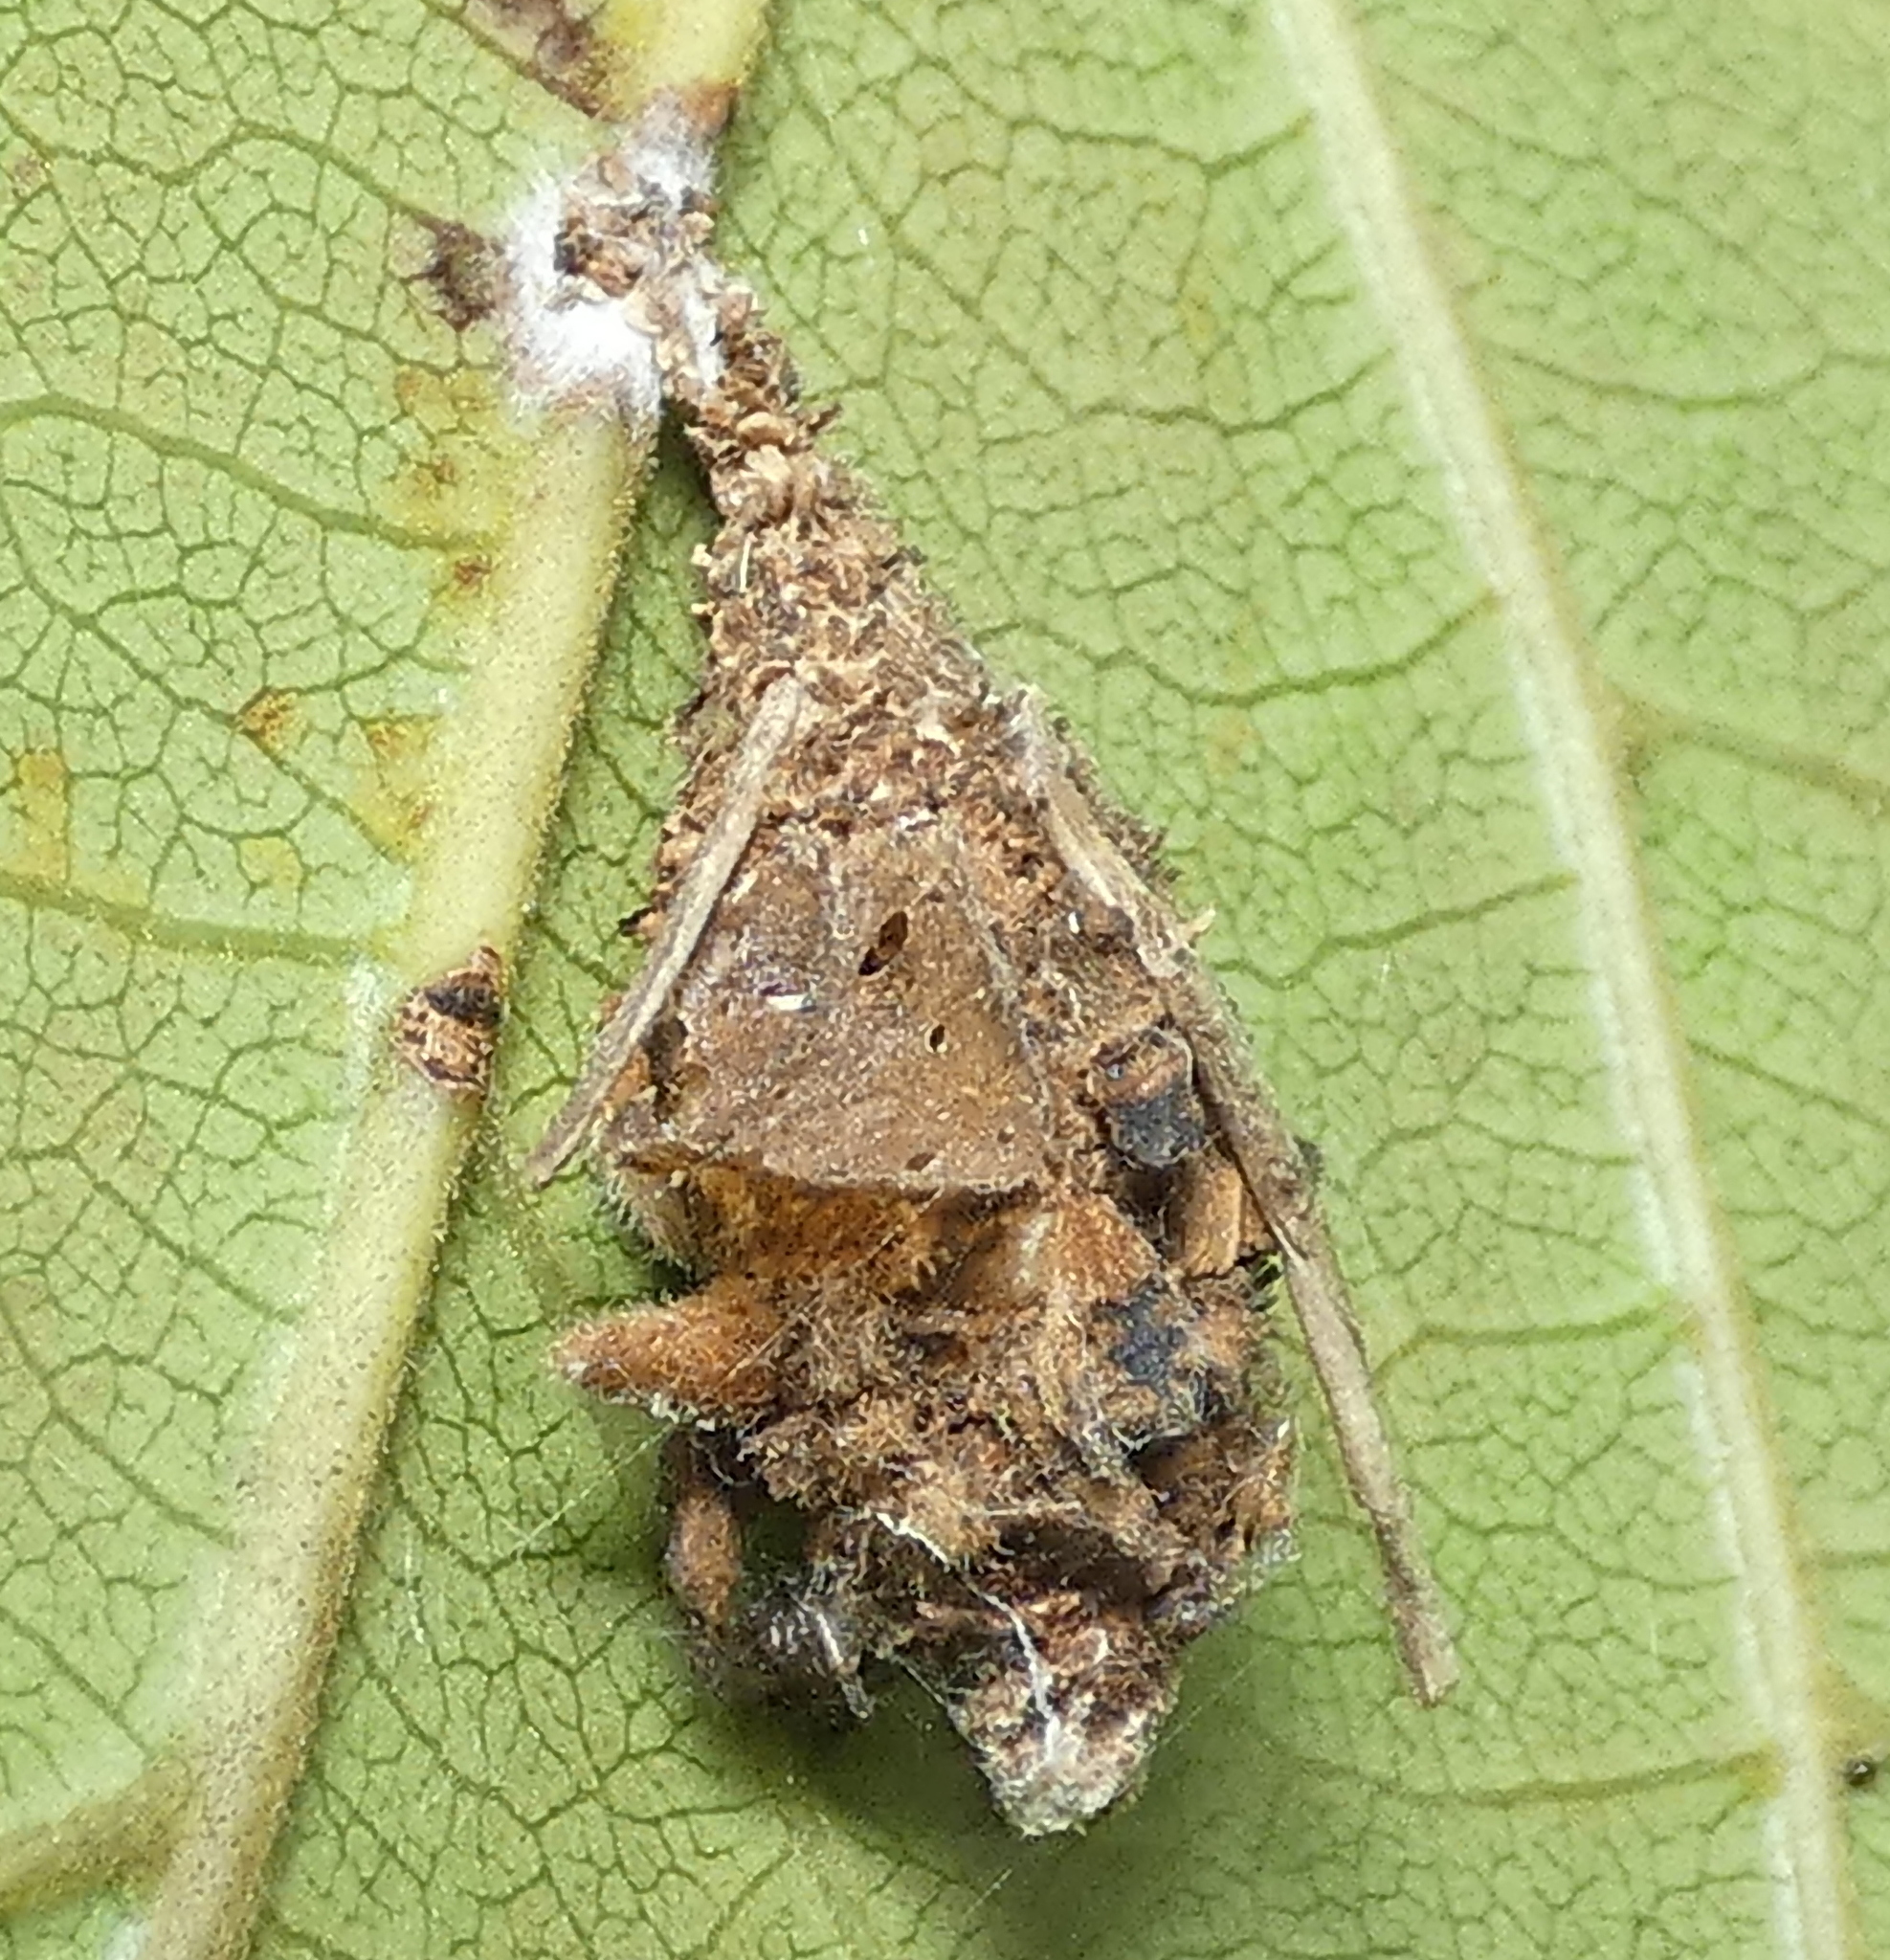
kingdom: Animalia
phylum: Arthropoda
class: Insecta
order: Lepidoptera
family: Psychidae
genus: Oiketicus
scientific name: Oiketicus kirbyi
